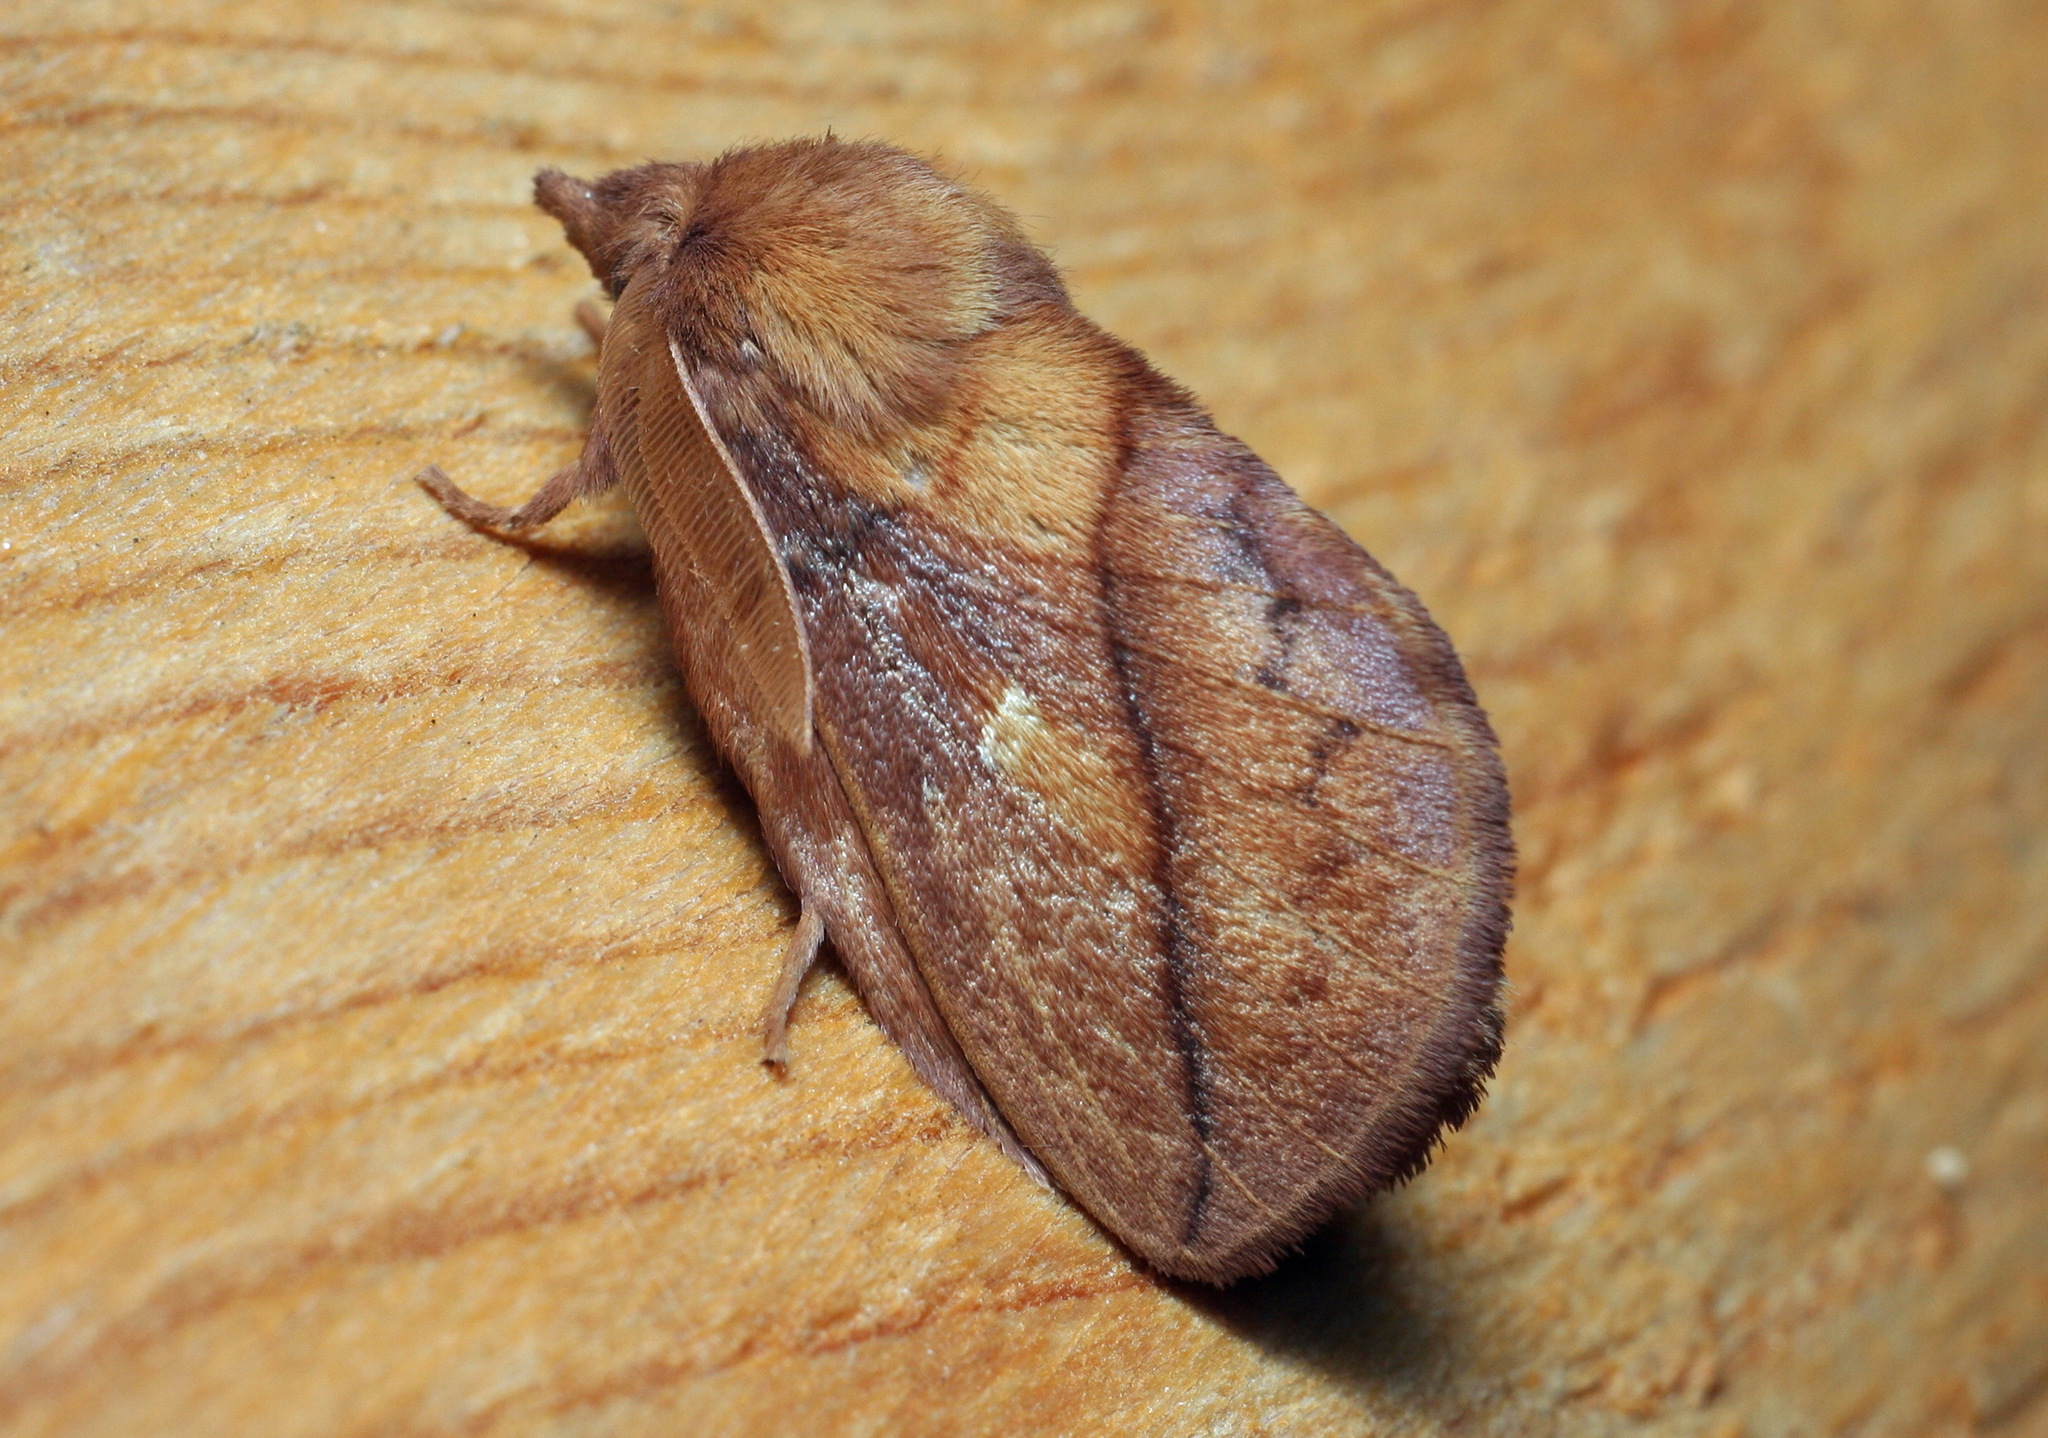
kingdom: Animalia
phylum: Arthropoda
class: Insecta
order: Lepidoptera
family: Lasiocampidae
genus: Euthrix
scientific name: Euthrix potatoria
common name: Drinker
